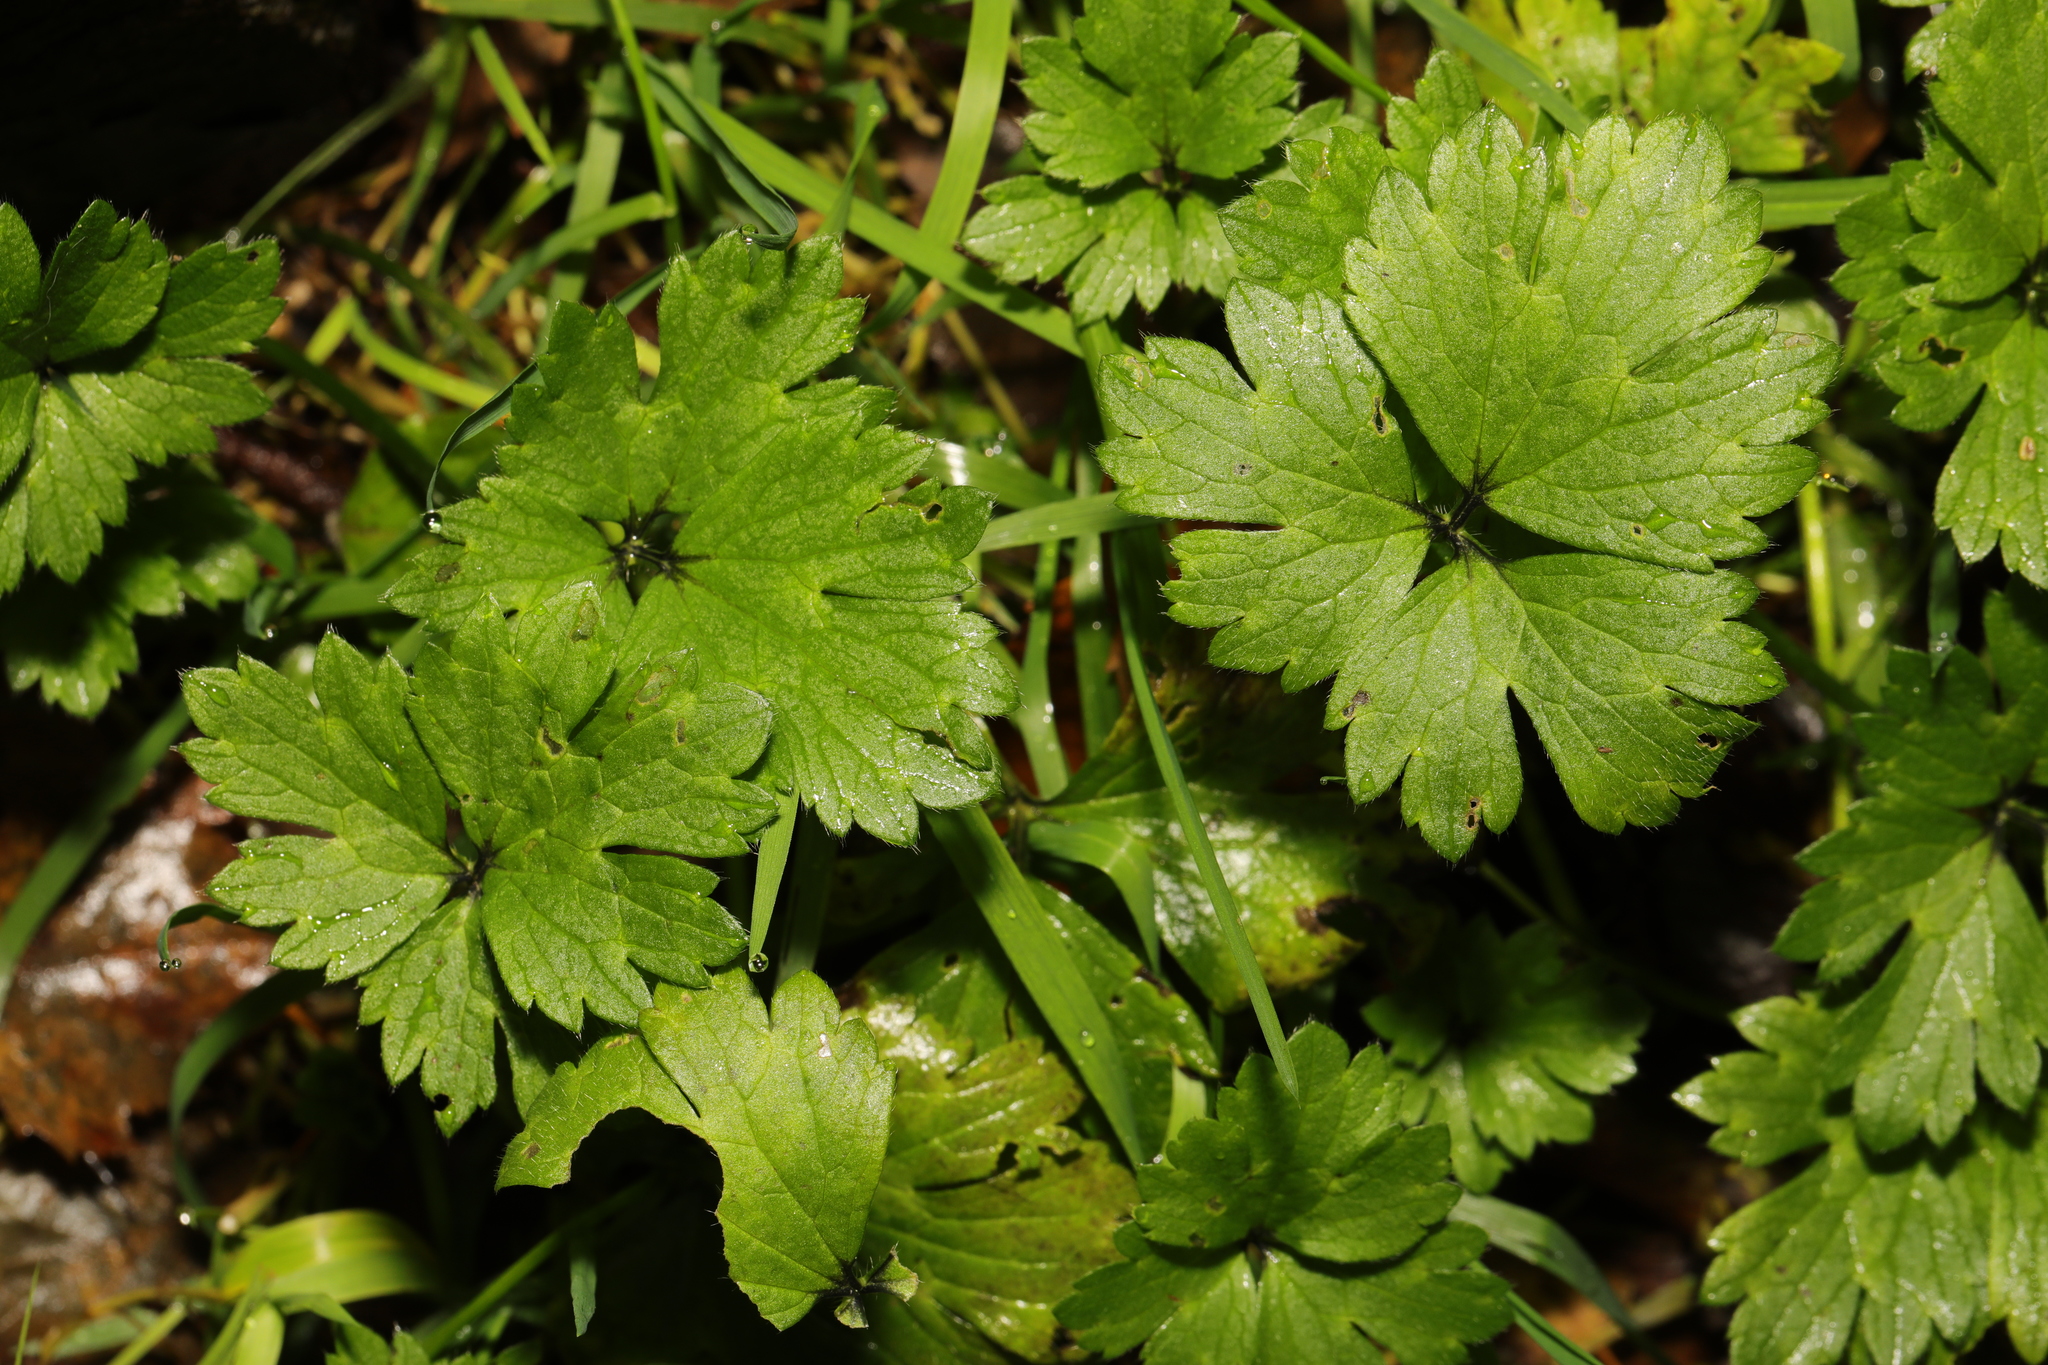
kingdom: Plantae
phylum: Tracheophyta
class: Magnoliopsida
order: Ranunculales
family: Ranunculaceae
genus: Ranunculus
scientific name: Ranunculus repens
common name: Creeping buttercup
